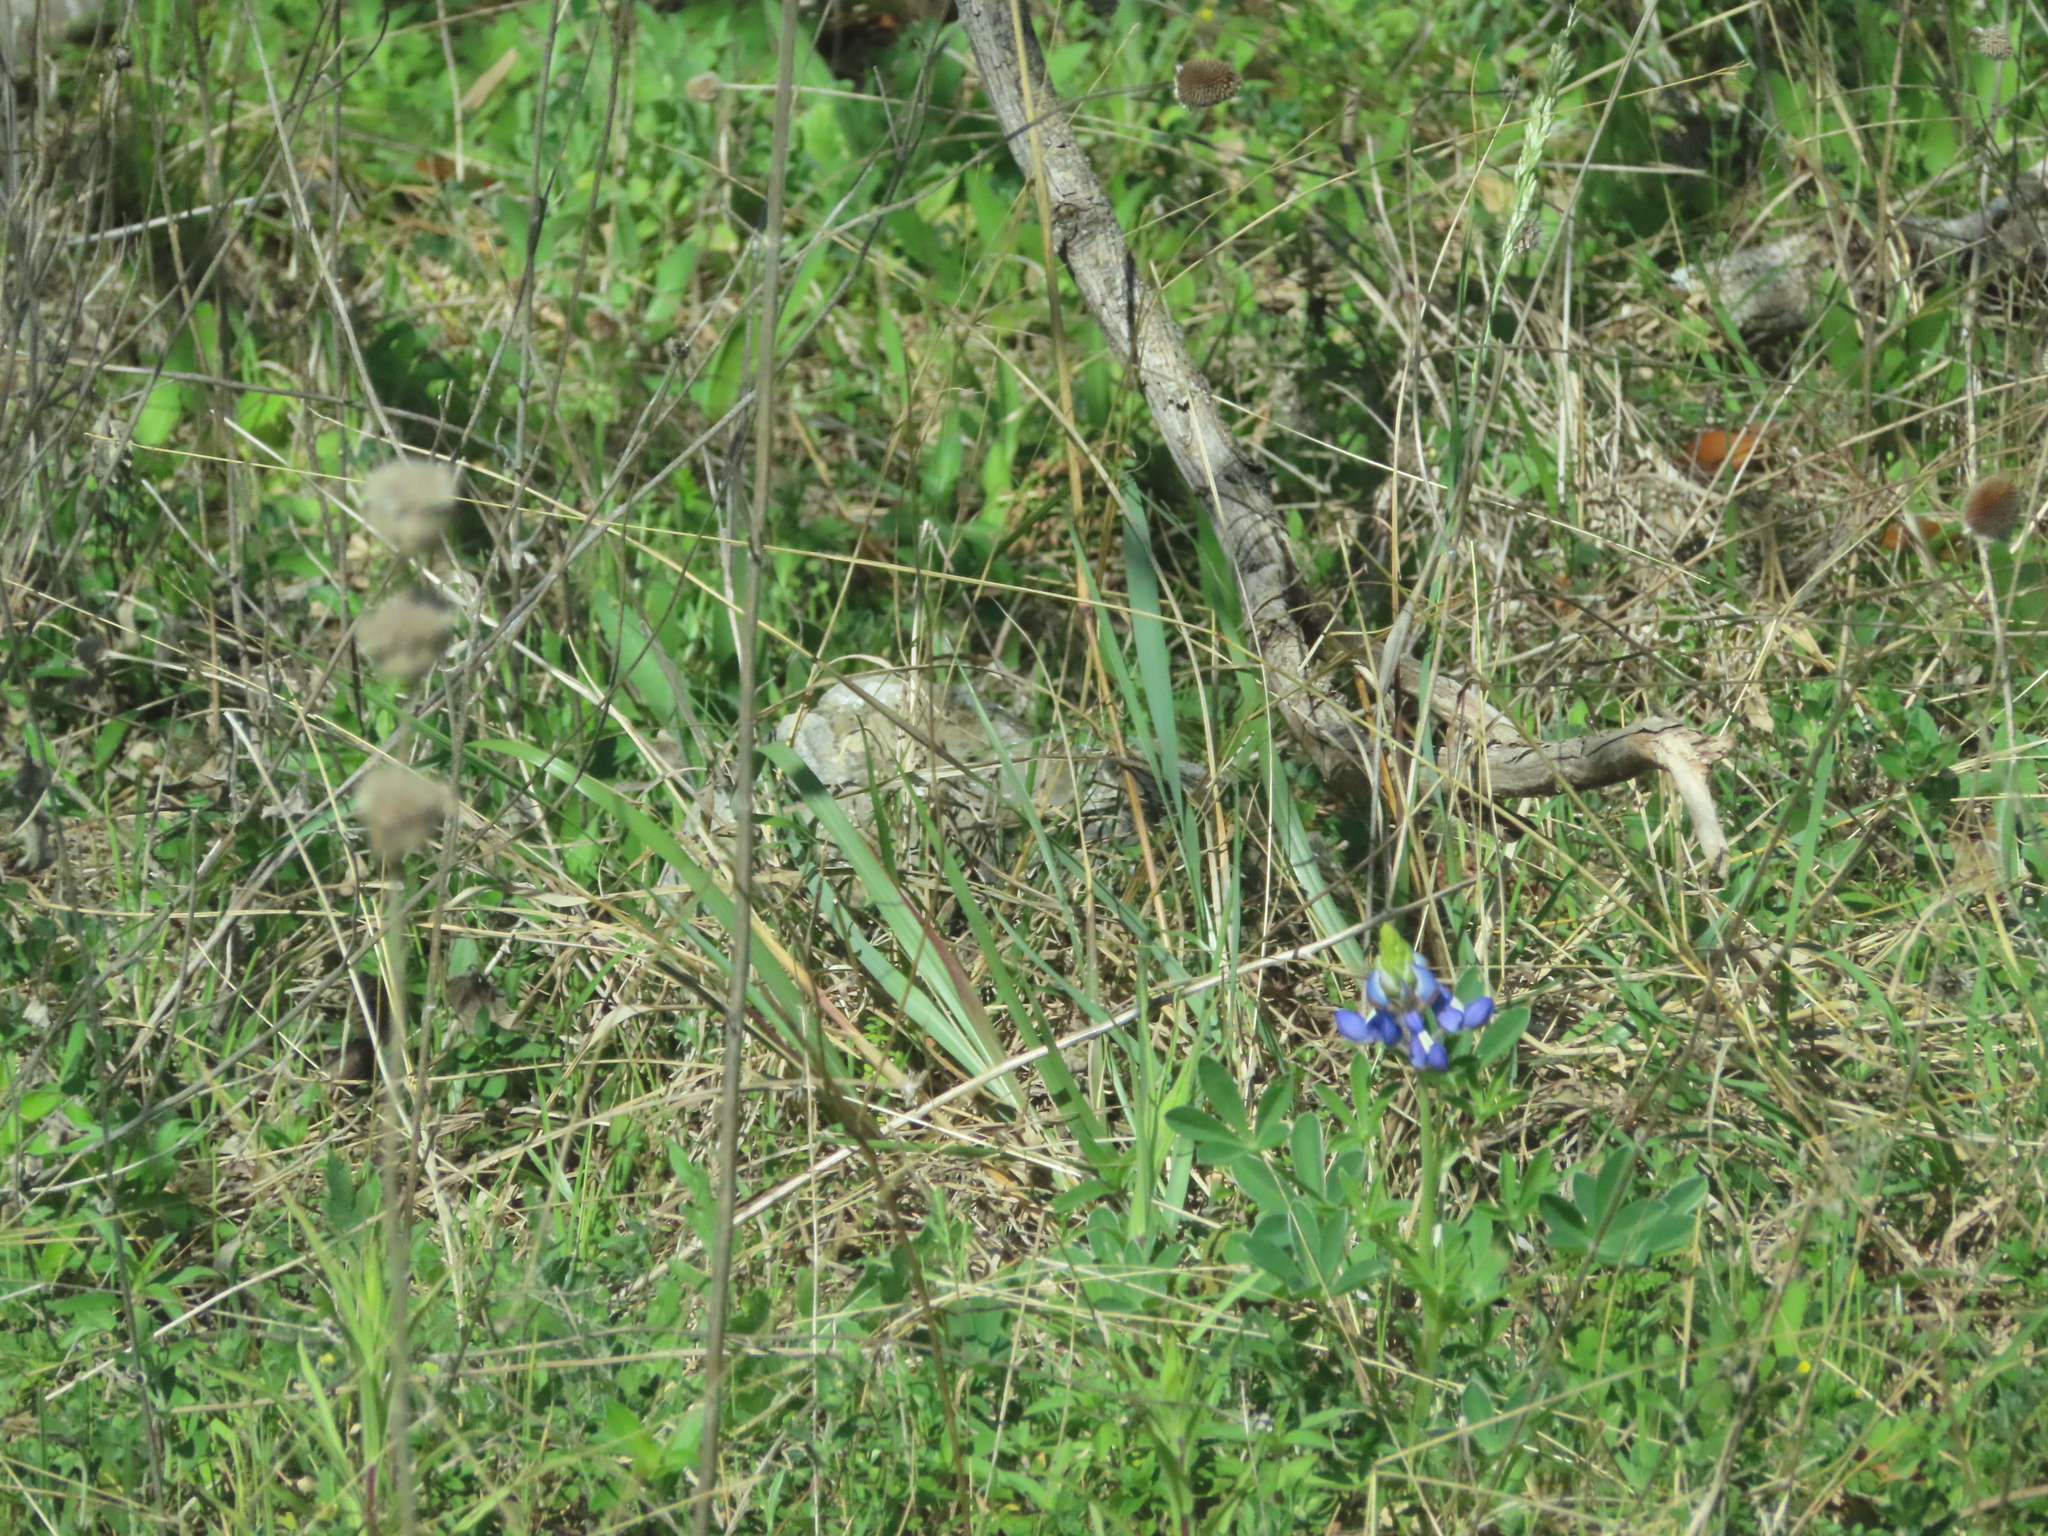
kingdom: Plantae
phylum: Tracheophyta
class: Magnoliopsida
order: Fabales
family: Fabaceae
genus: Lupinus
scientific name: Lupinus texensis
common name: Texas bluebonnet
